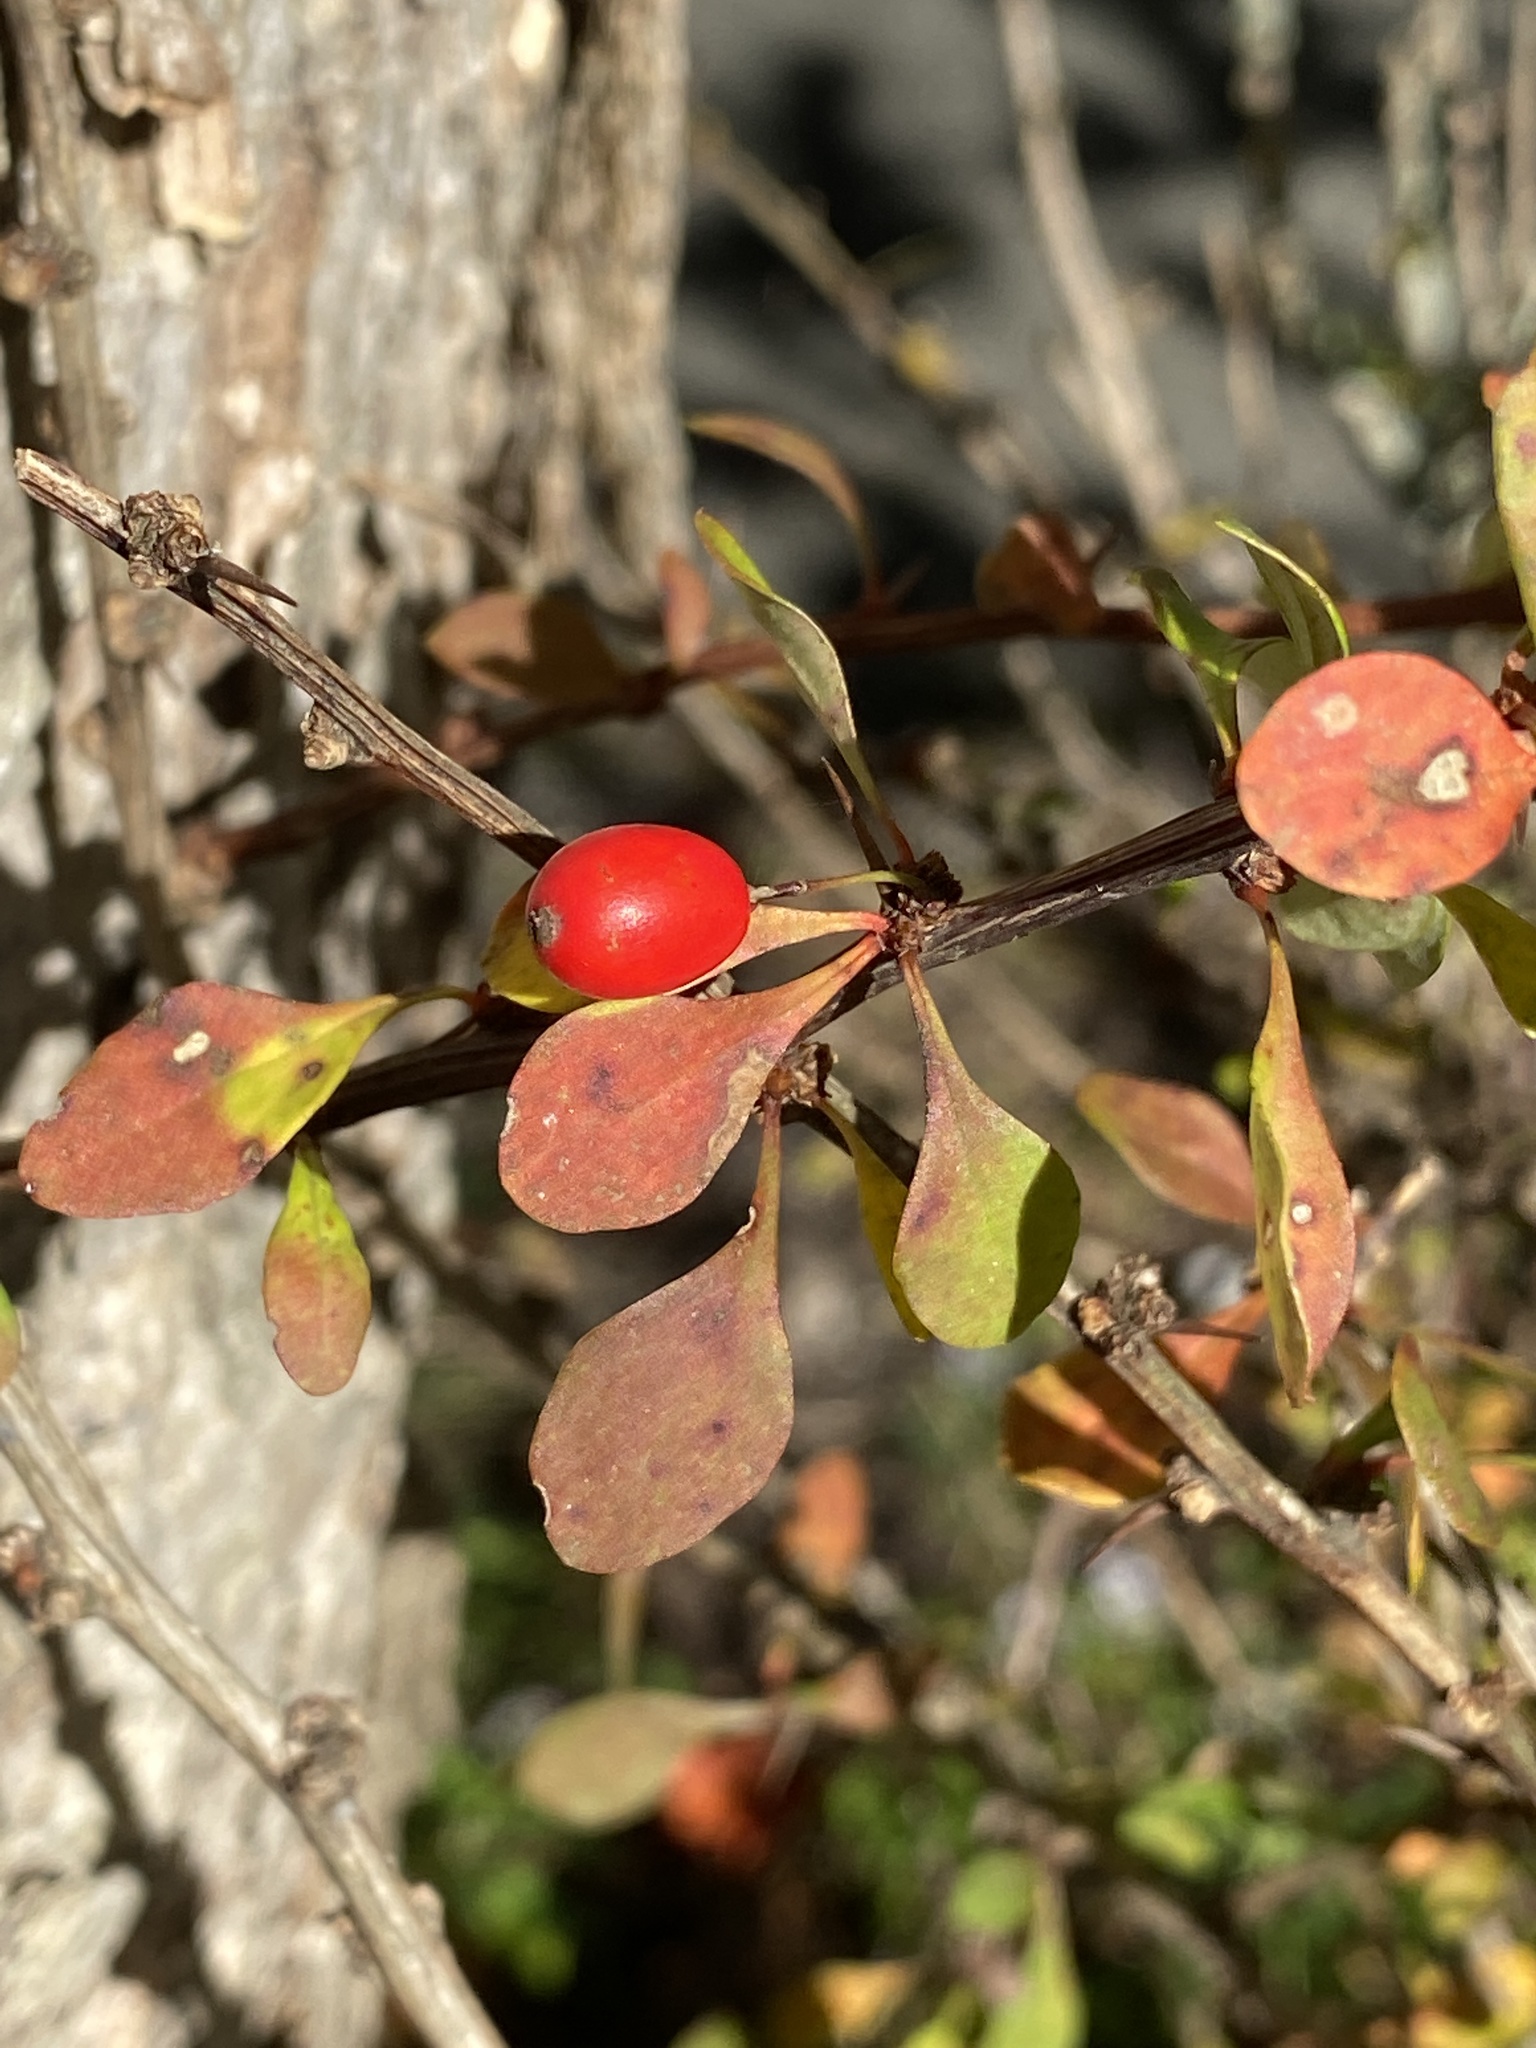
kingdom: Plantae
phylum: Tracheophyta
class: Magnoliopsida
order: Ranunculales
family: Berberidaceae
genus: Berberis
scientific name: Berberis thunbergii
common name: Japanese barberry
